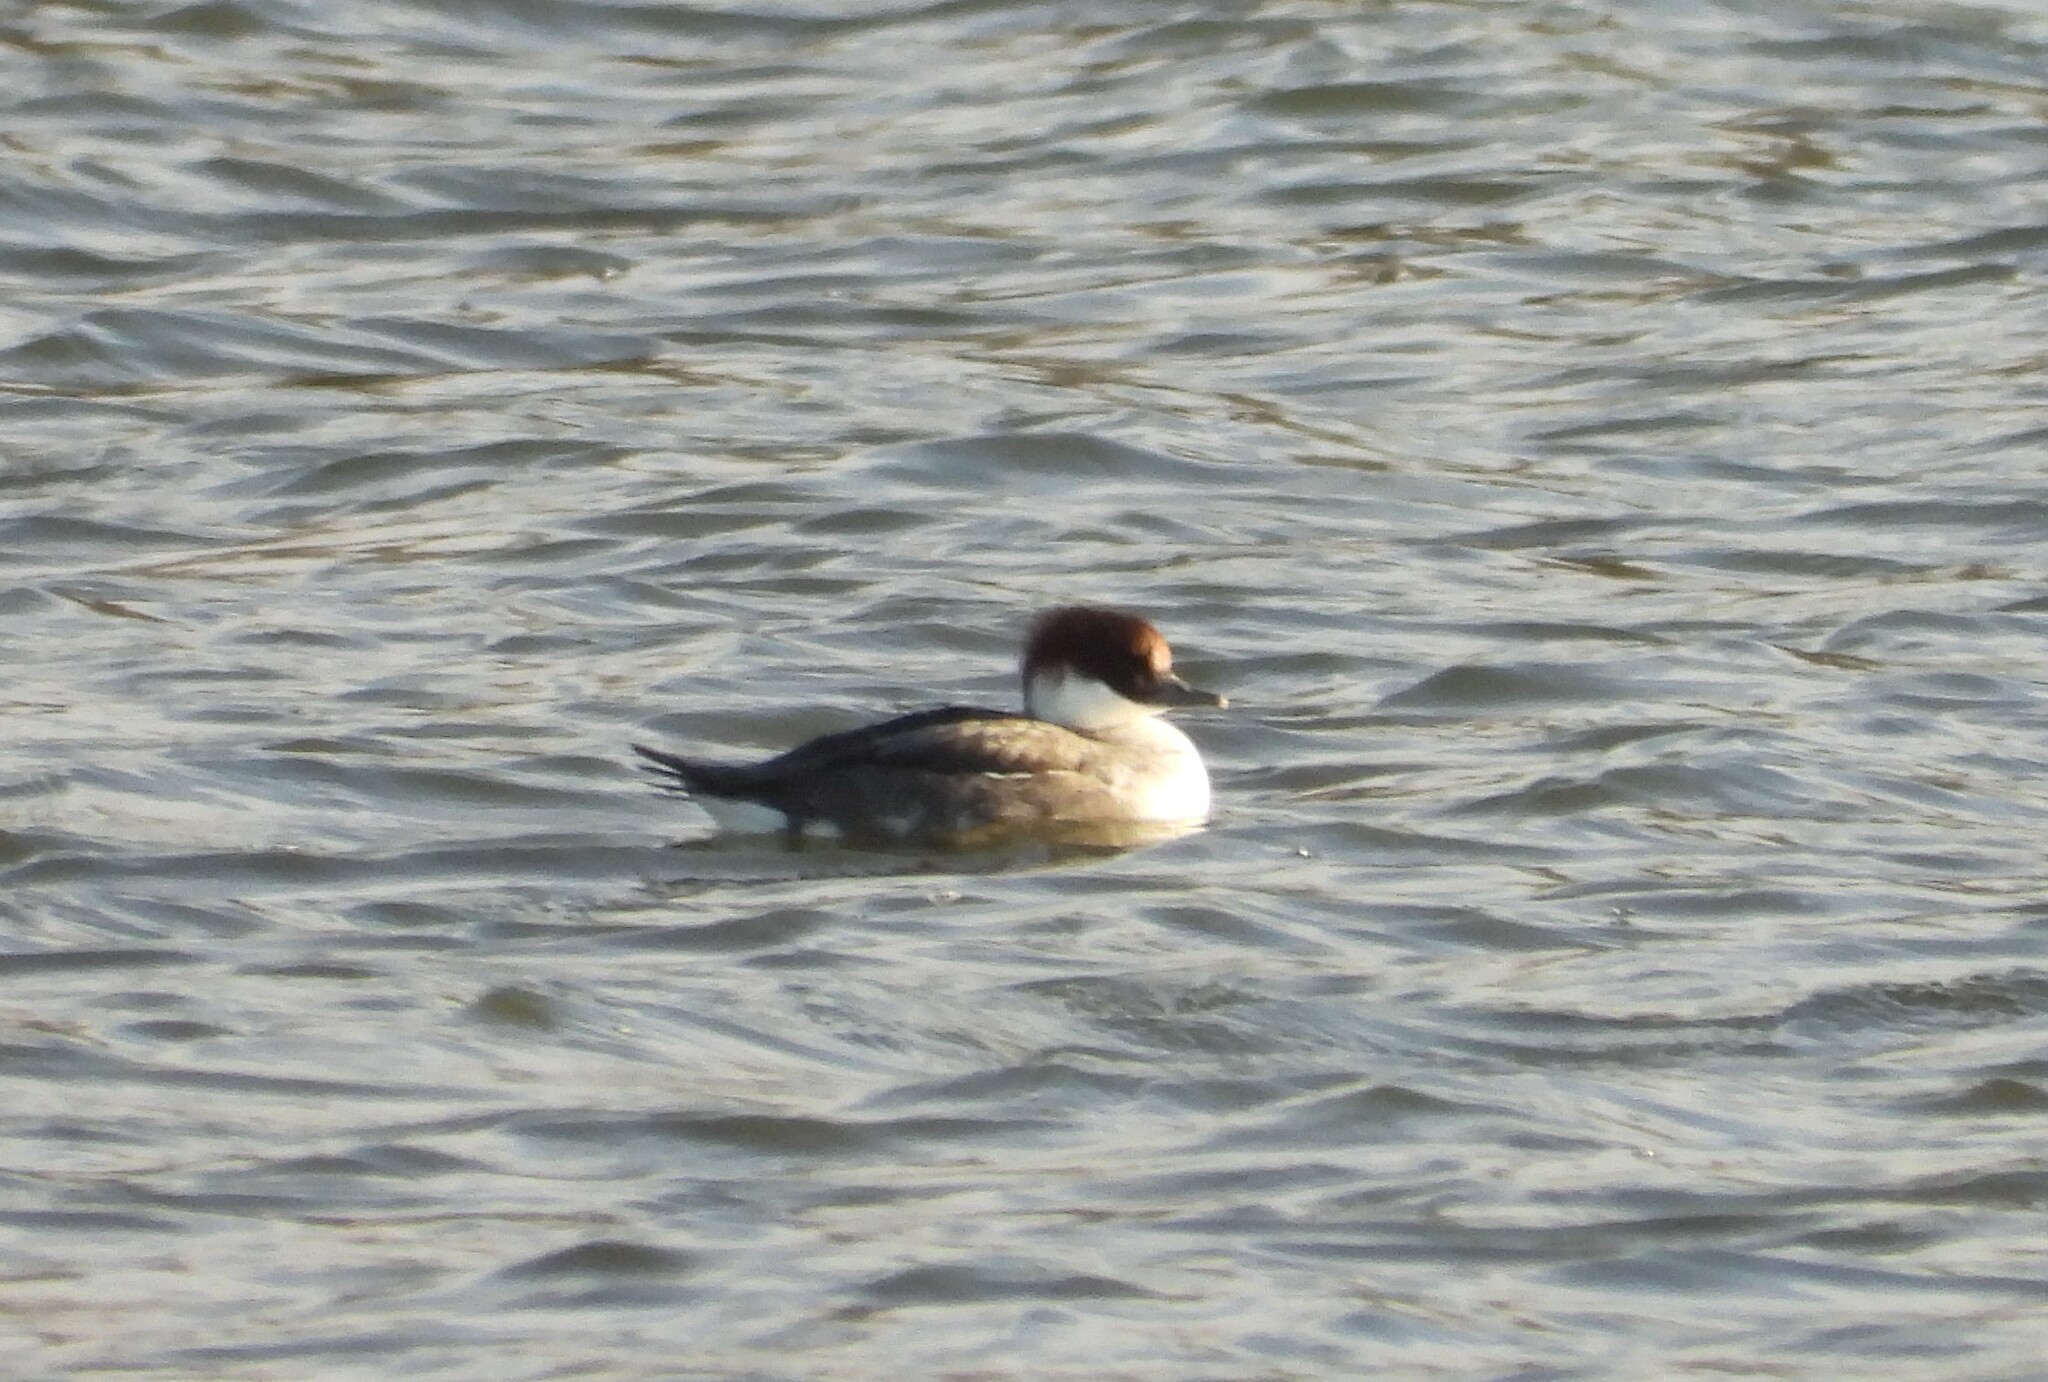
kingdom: Animalia
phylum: Chordata
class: Aves
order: Anseriformes
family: Anatidae
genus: Mergellus
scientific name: Mergellus albellus
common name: Smew
